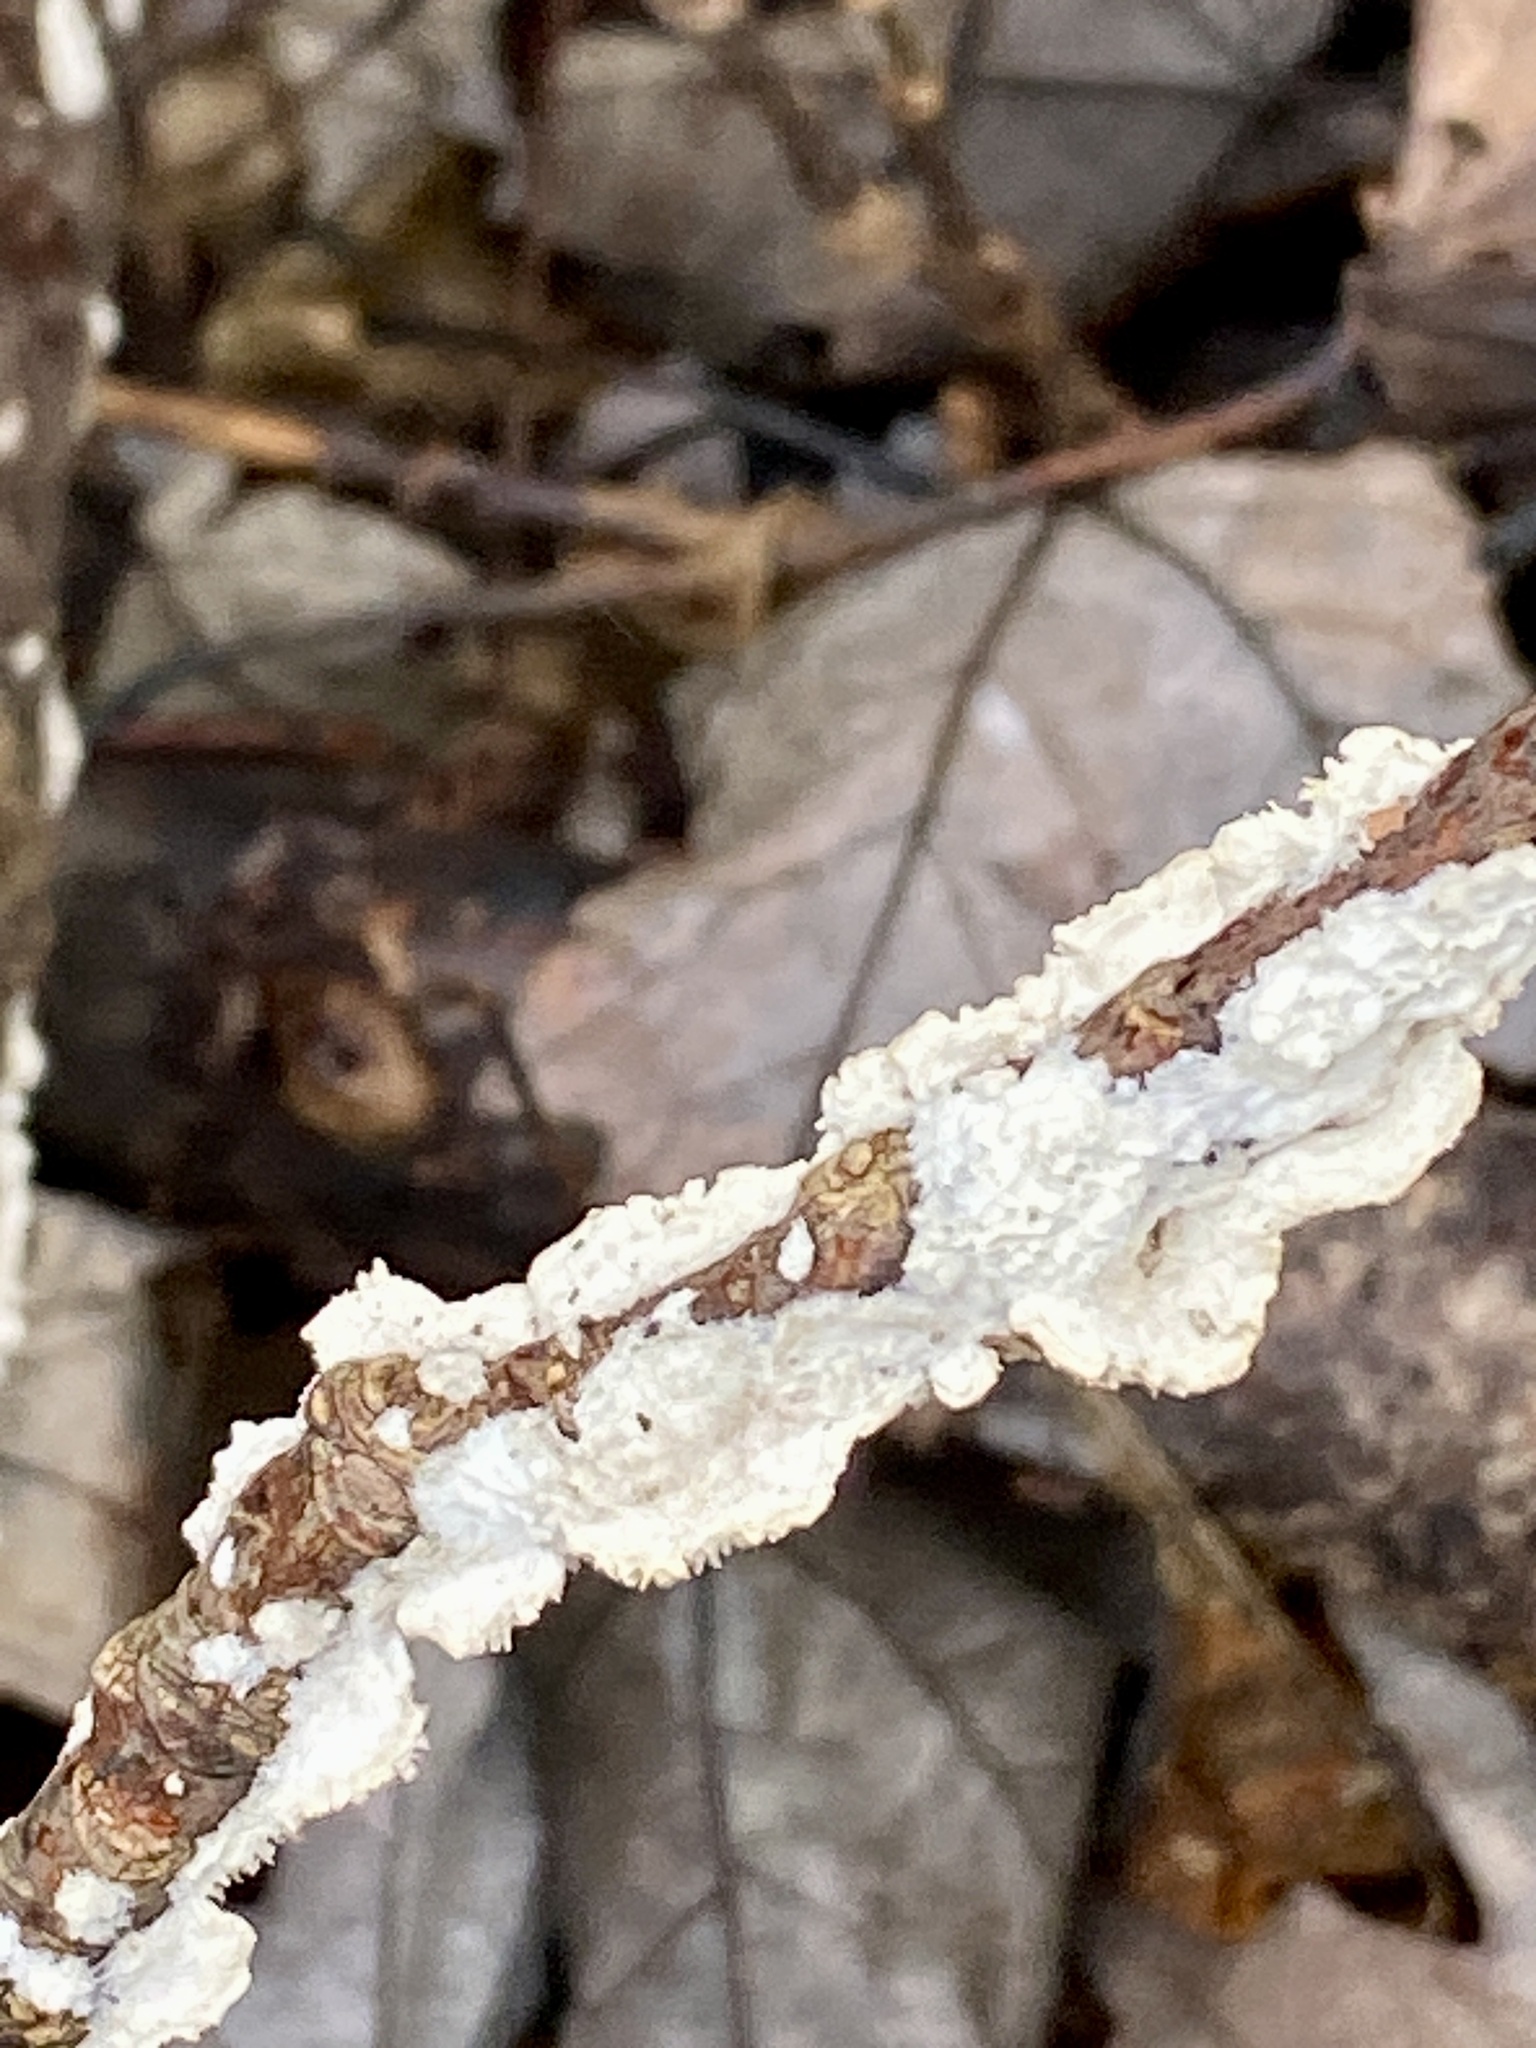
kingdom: Fungi
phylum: Basidiomycota
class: Agaricomycetes
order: Polyporales
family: Irpicaceae
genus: Irpex
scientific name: Irpex lacteus
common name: Milk-white toothed polypore
